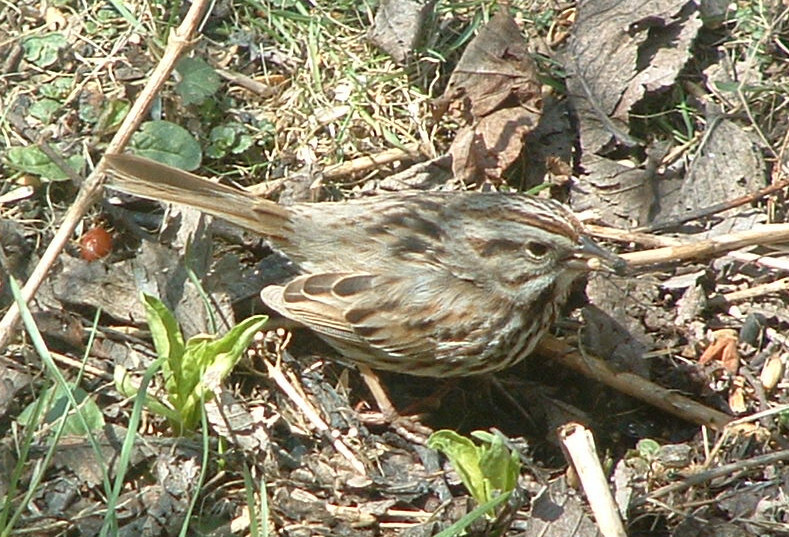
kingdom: Animalia
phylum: Chordata
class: Aves
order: Passeriformes
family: Passerellidae
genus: Melospiza
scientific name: Melospiza melodia
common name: Song sparrow
